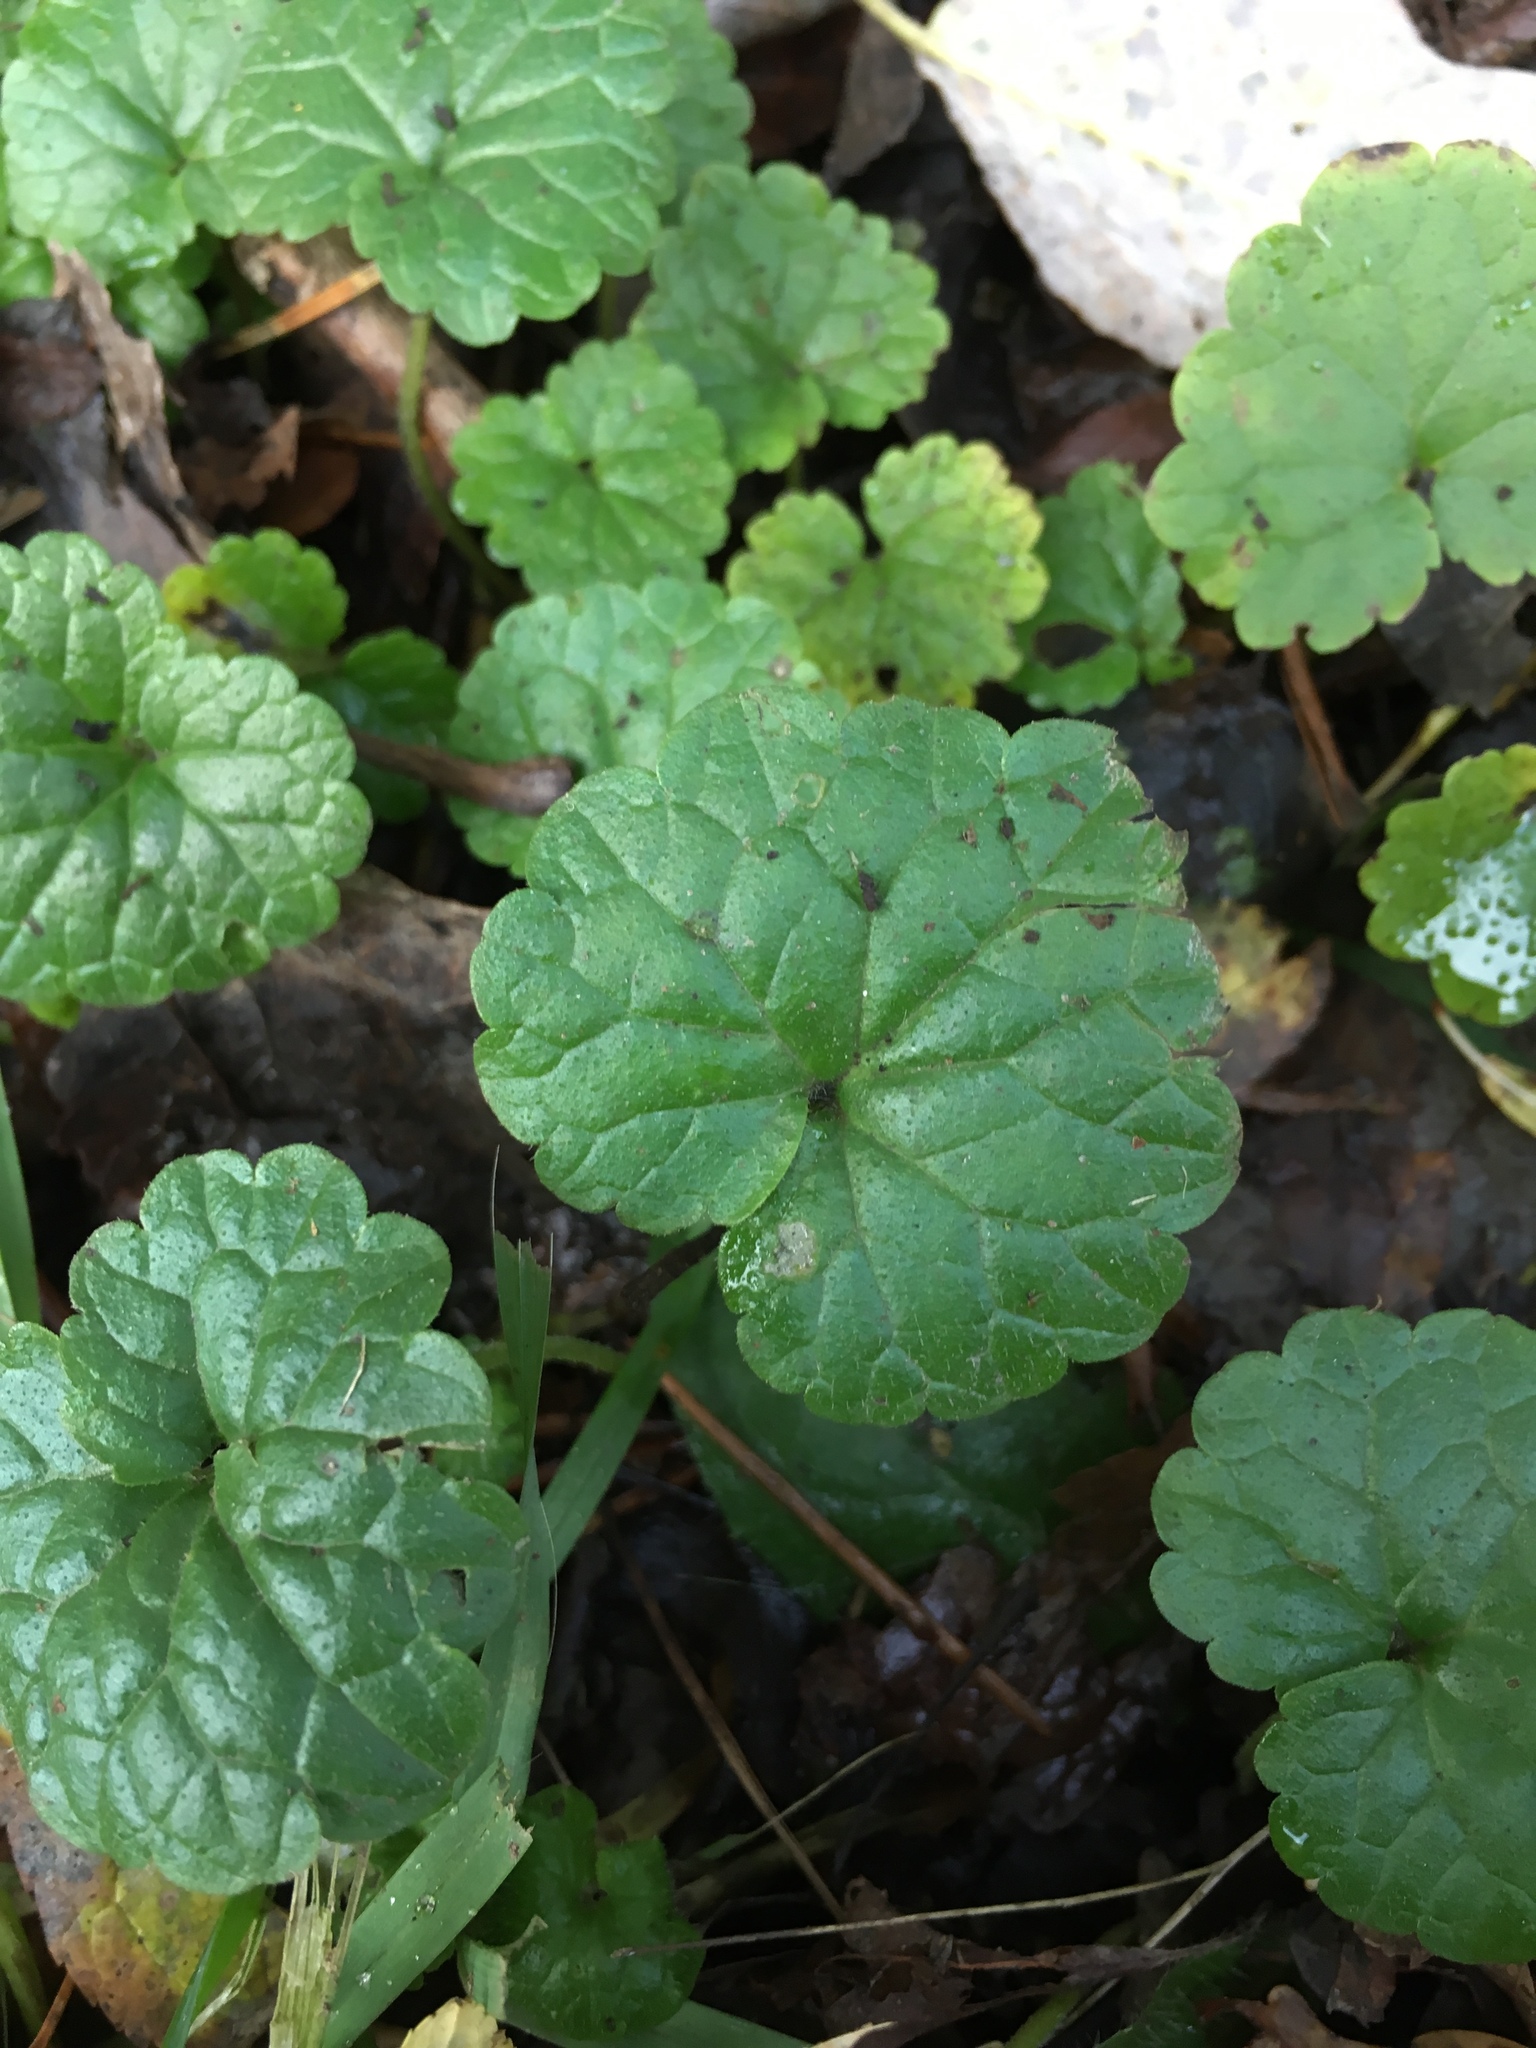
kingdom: Plantae
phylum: Tracheophyta
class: Magnoliopsida
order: Lamiales
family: Lamiaceae
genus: Glechoma
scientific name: Glechoma hederacea
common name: Ground ivy
